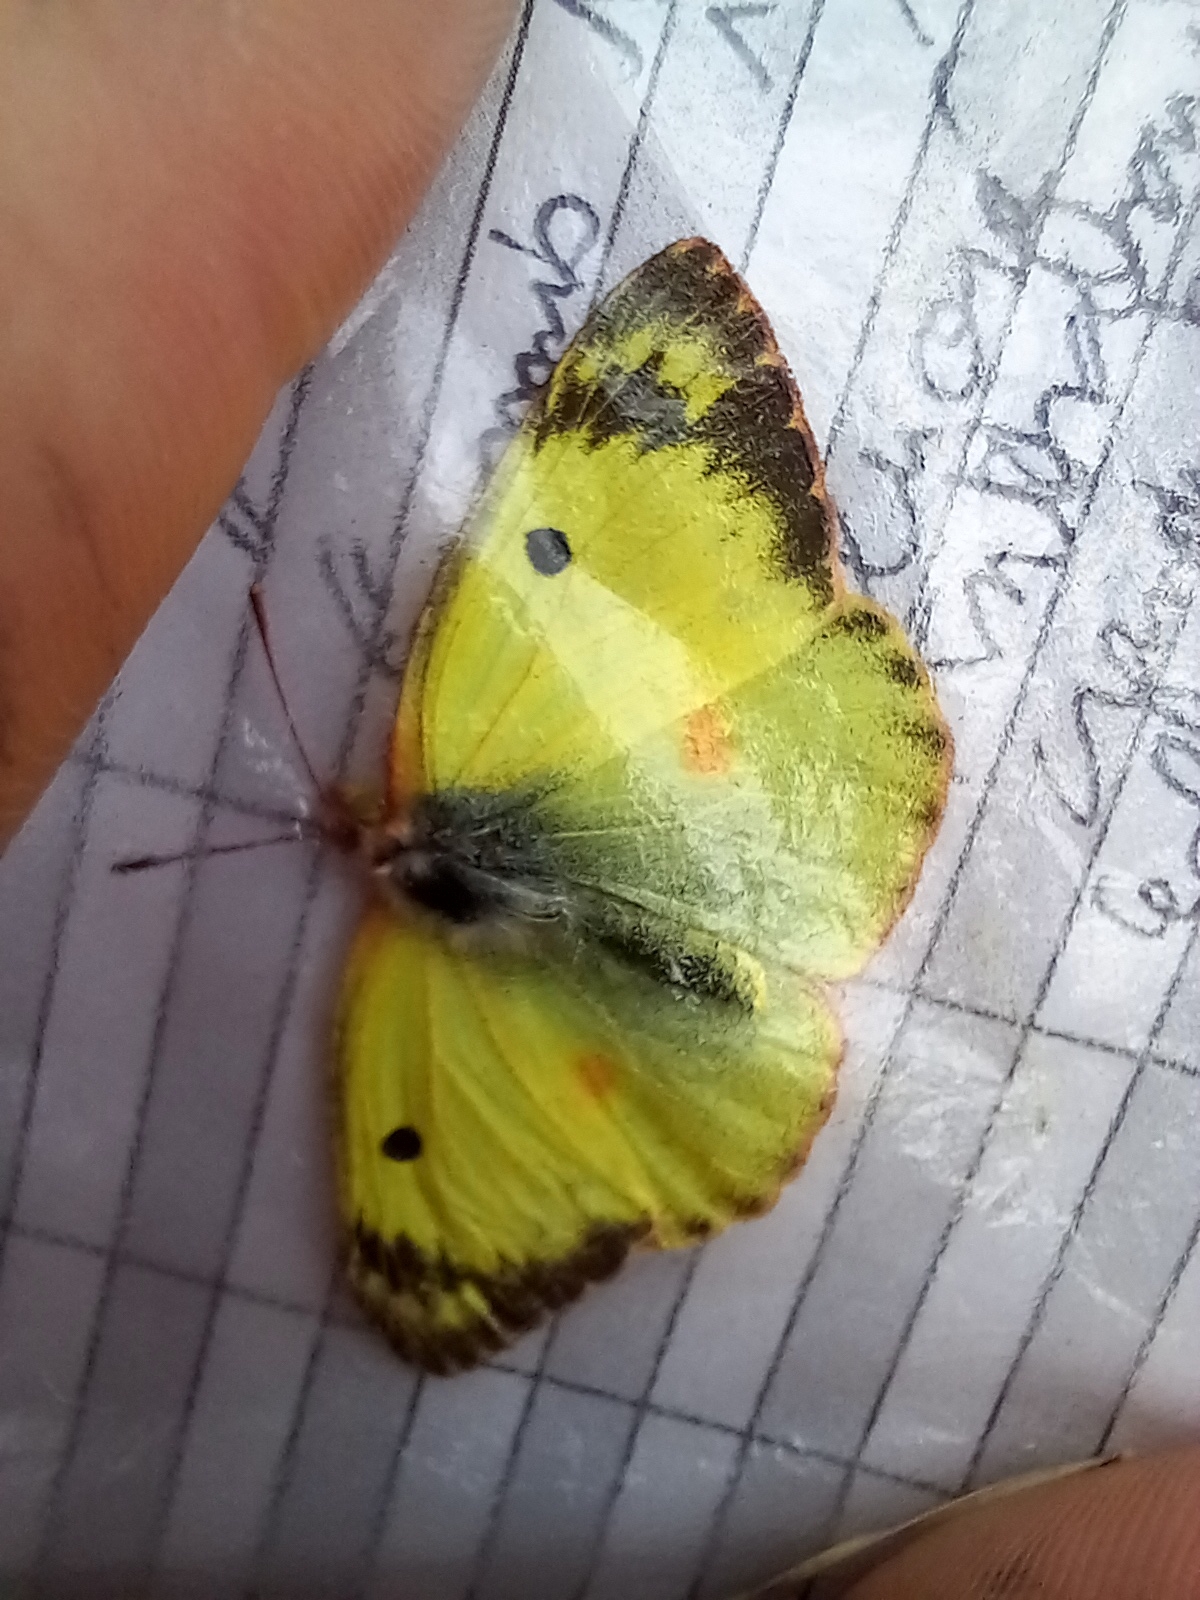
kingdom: Animalia
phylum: Arthropoda
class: Insecta
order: Lepidoptera
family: Pieridae
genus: Colias
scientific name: Colias alfacariensis
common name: Berger's clouded yellow
